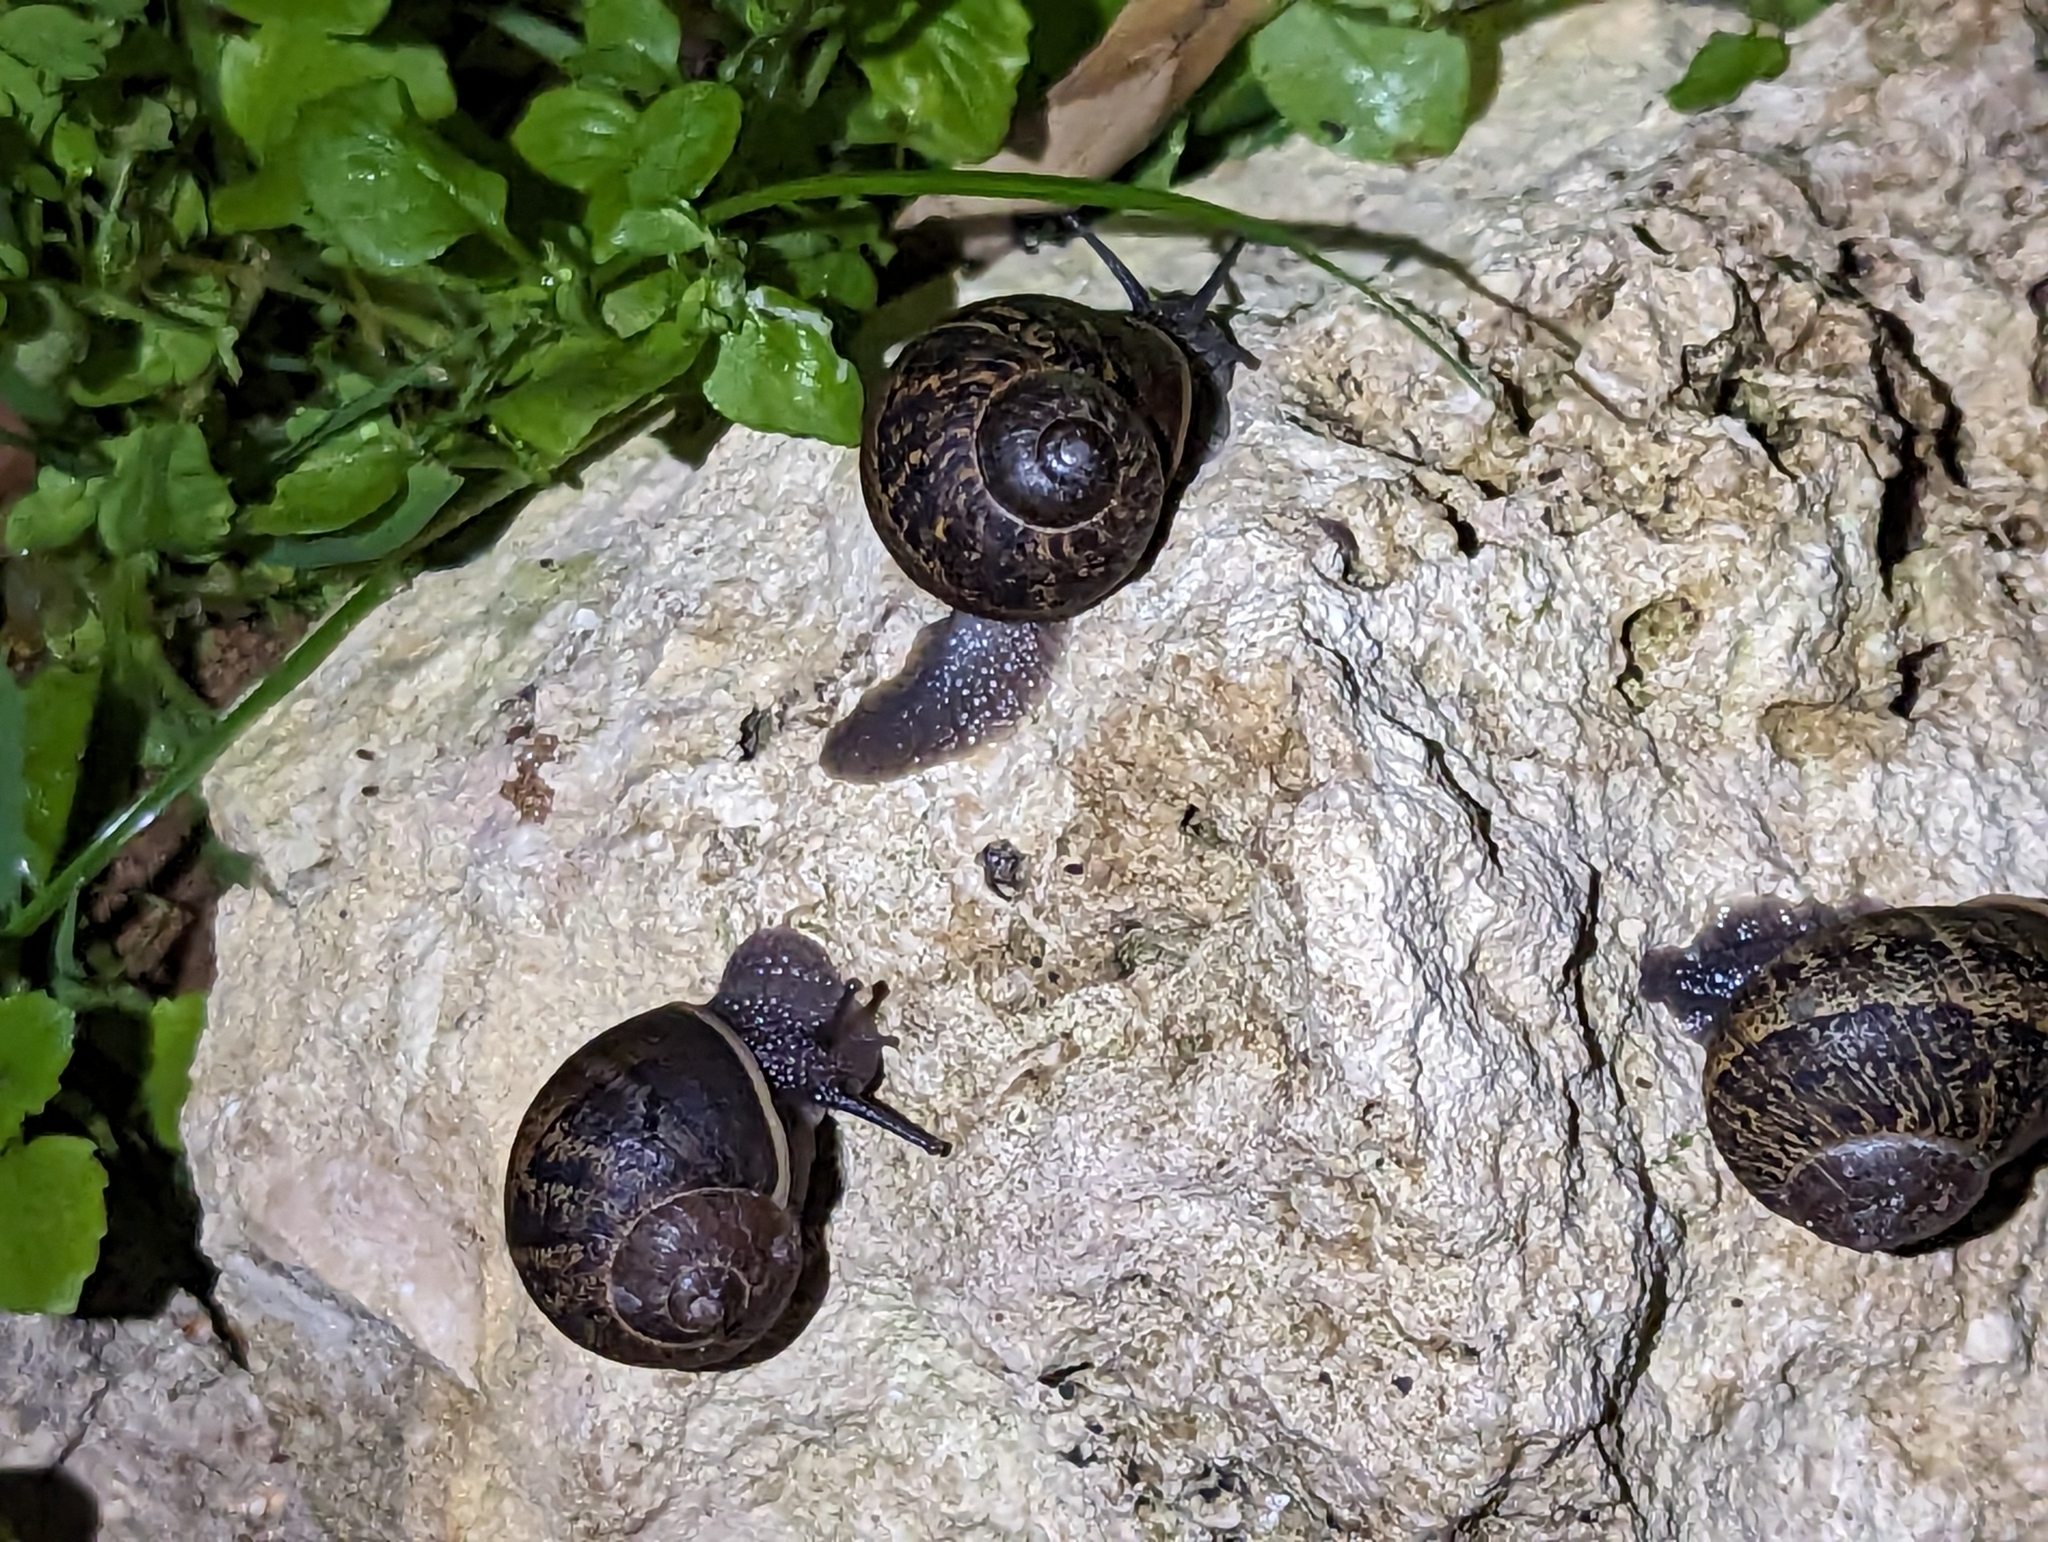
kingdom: Animalia
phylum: Mollusca
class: Gastropoda
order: Stylommatophora
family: Helicidae
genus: Cornu
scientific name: Cornu aspersum
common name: Brown garden snail
